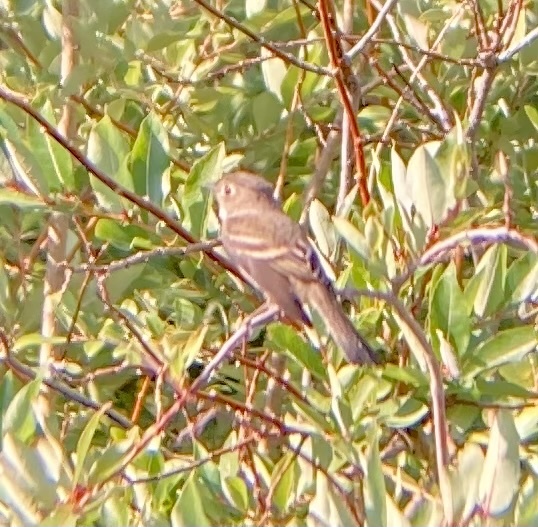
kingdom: Animalia
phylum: Chordata
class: Aves
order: Passeriformes
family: Tyrannidae
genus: Empidonax
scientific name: Empidonax oberholseri
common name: Dusky flycatcher
